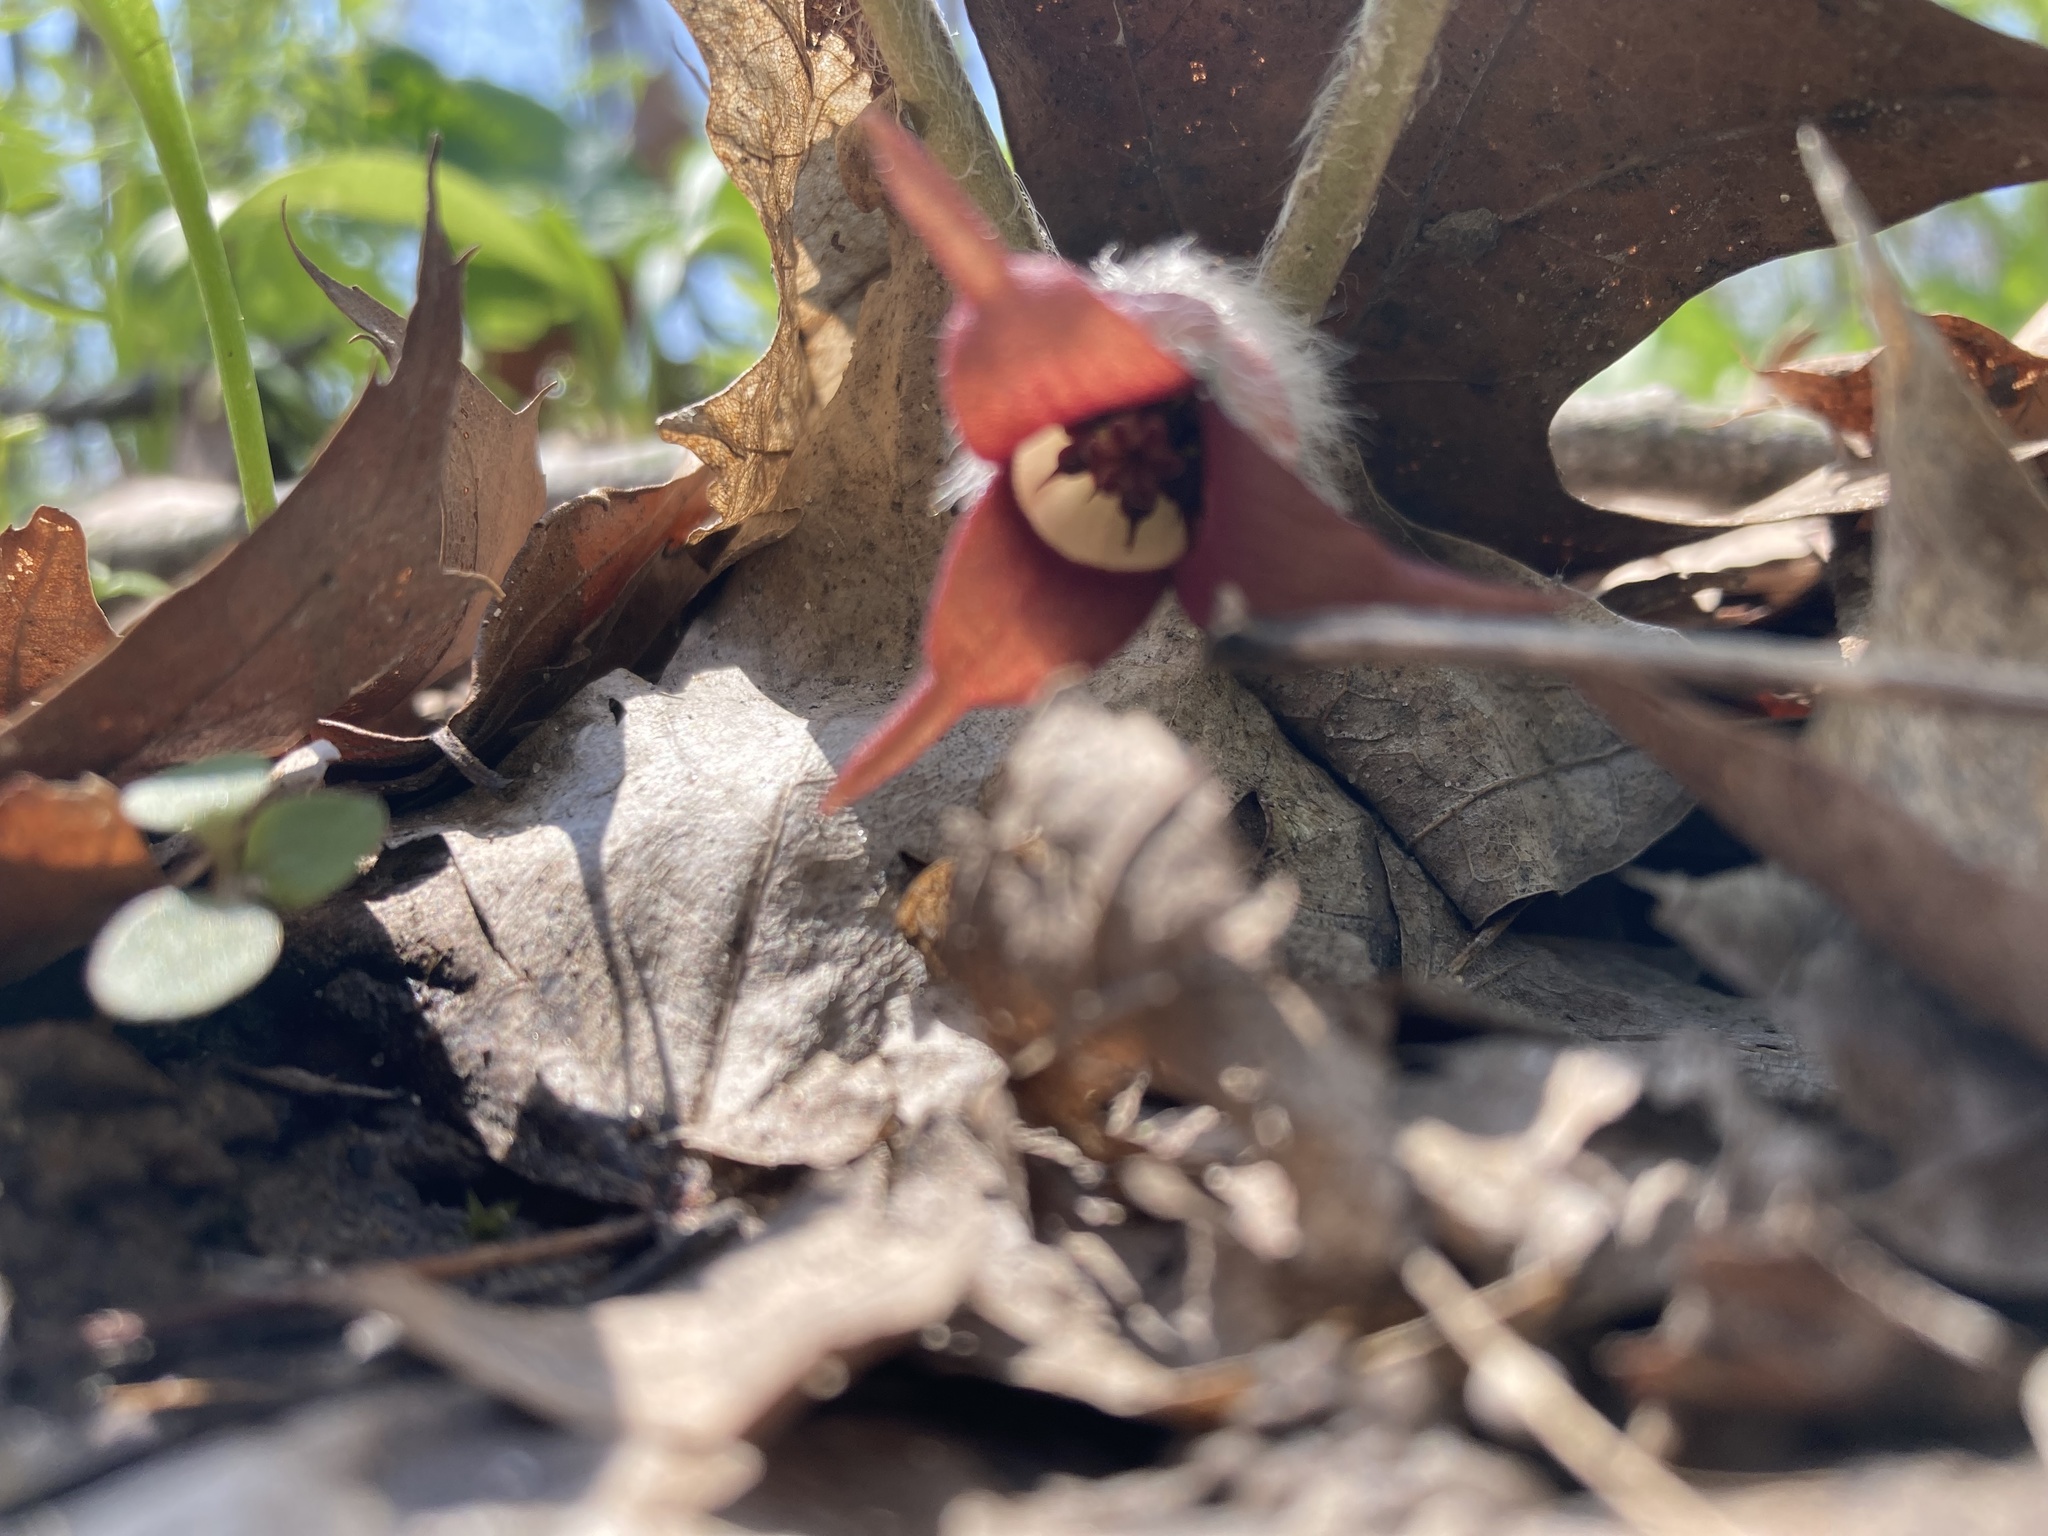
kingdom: Plantae
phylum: Tracheophyta
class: Magnoliopsida
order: Piperales
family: Aristolochiaceae
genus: Asarum
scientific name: Asarum canadense
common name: Wild ginger
